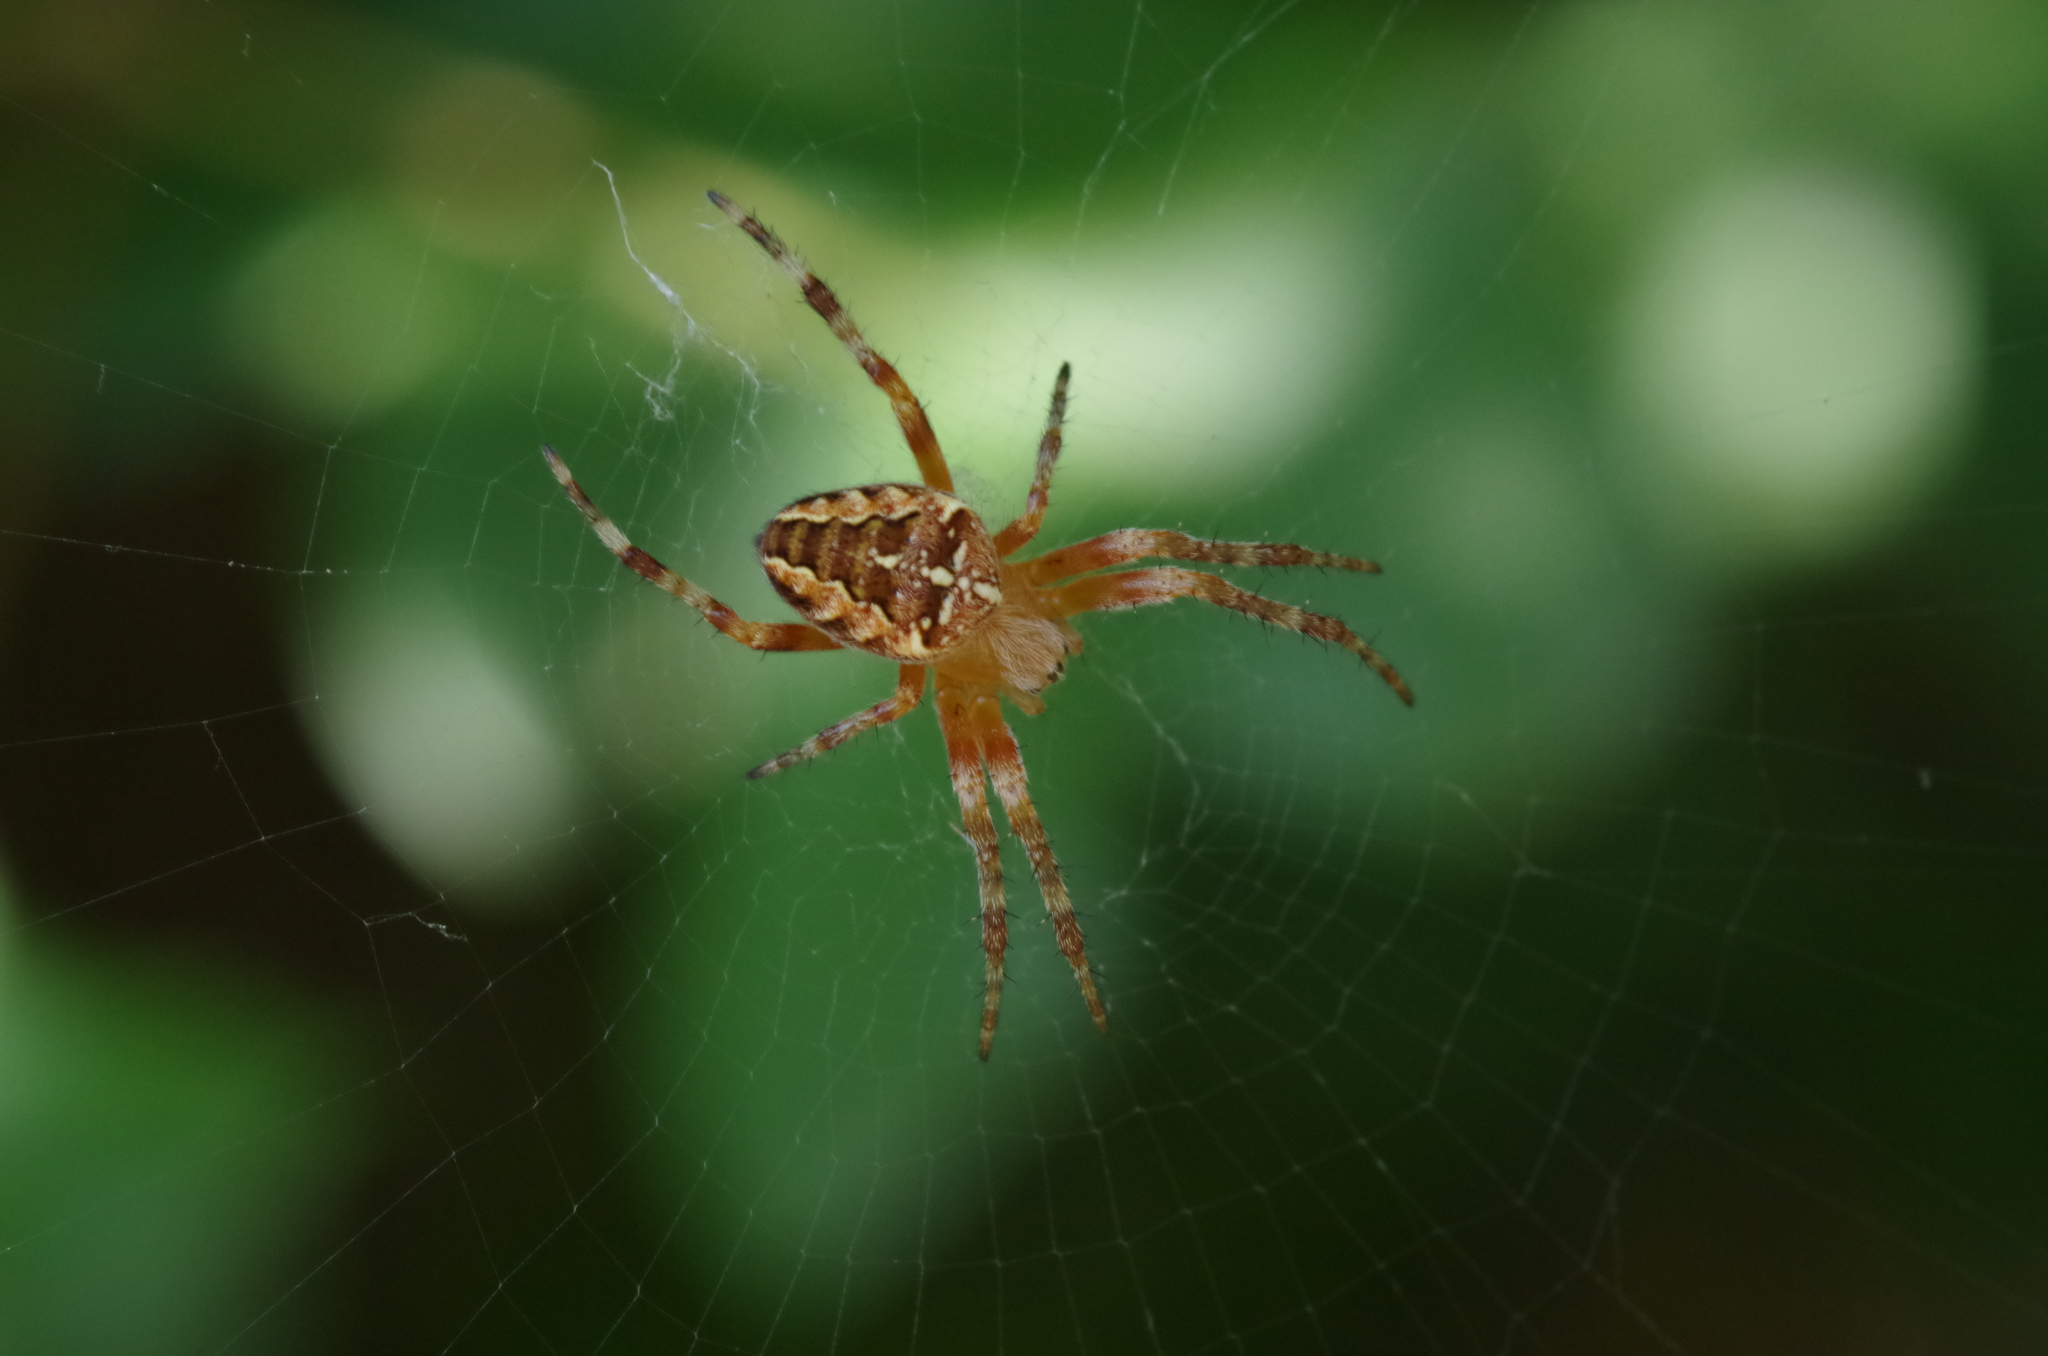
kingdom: Animalia
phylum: Arthropoda
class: Arachnida
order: Araneae
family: Araneidae
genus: Araneus
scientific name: Araneus diadematus
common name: Cross orbweaver
